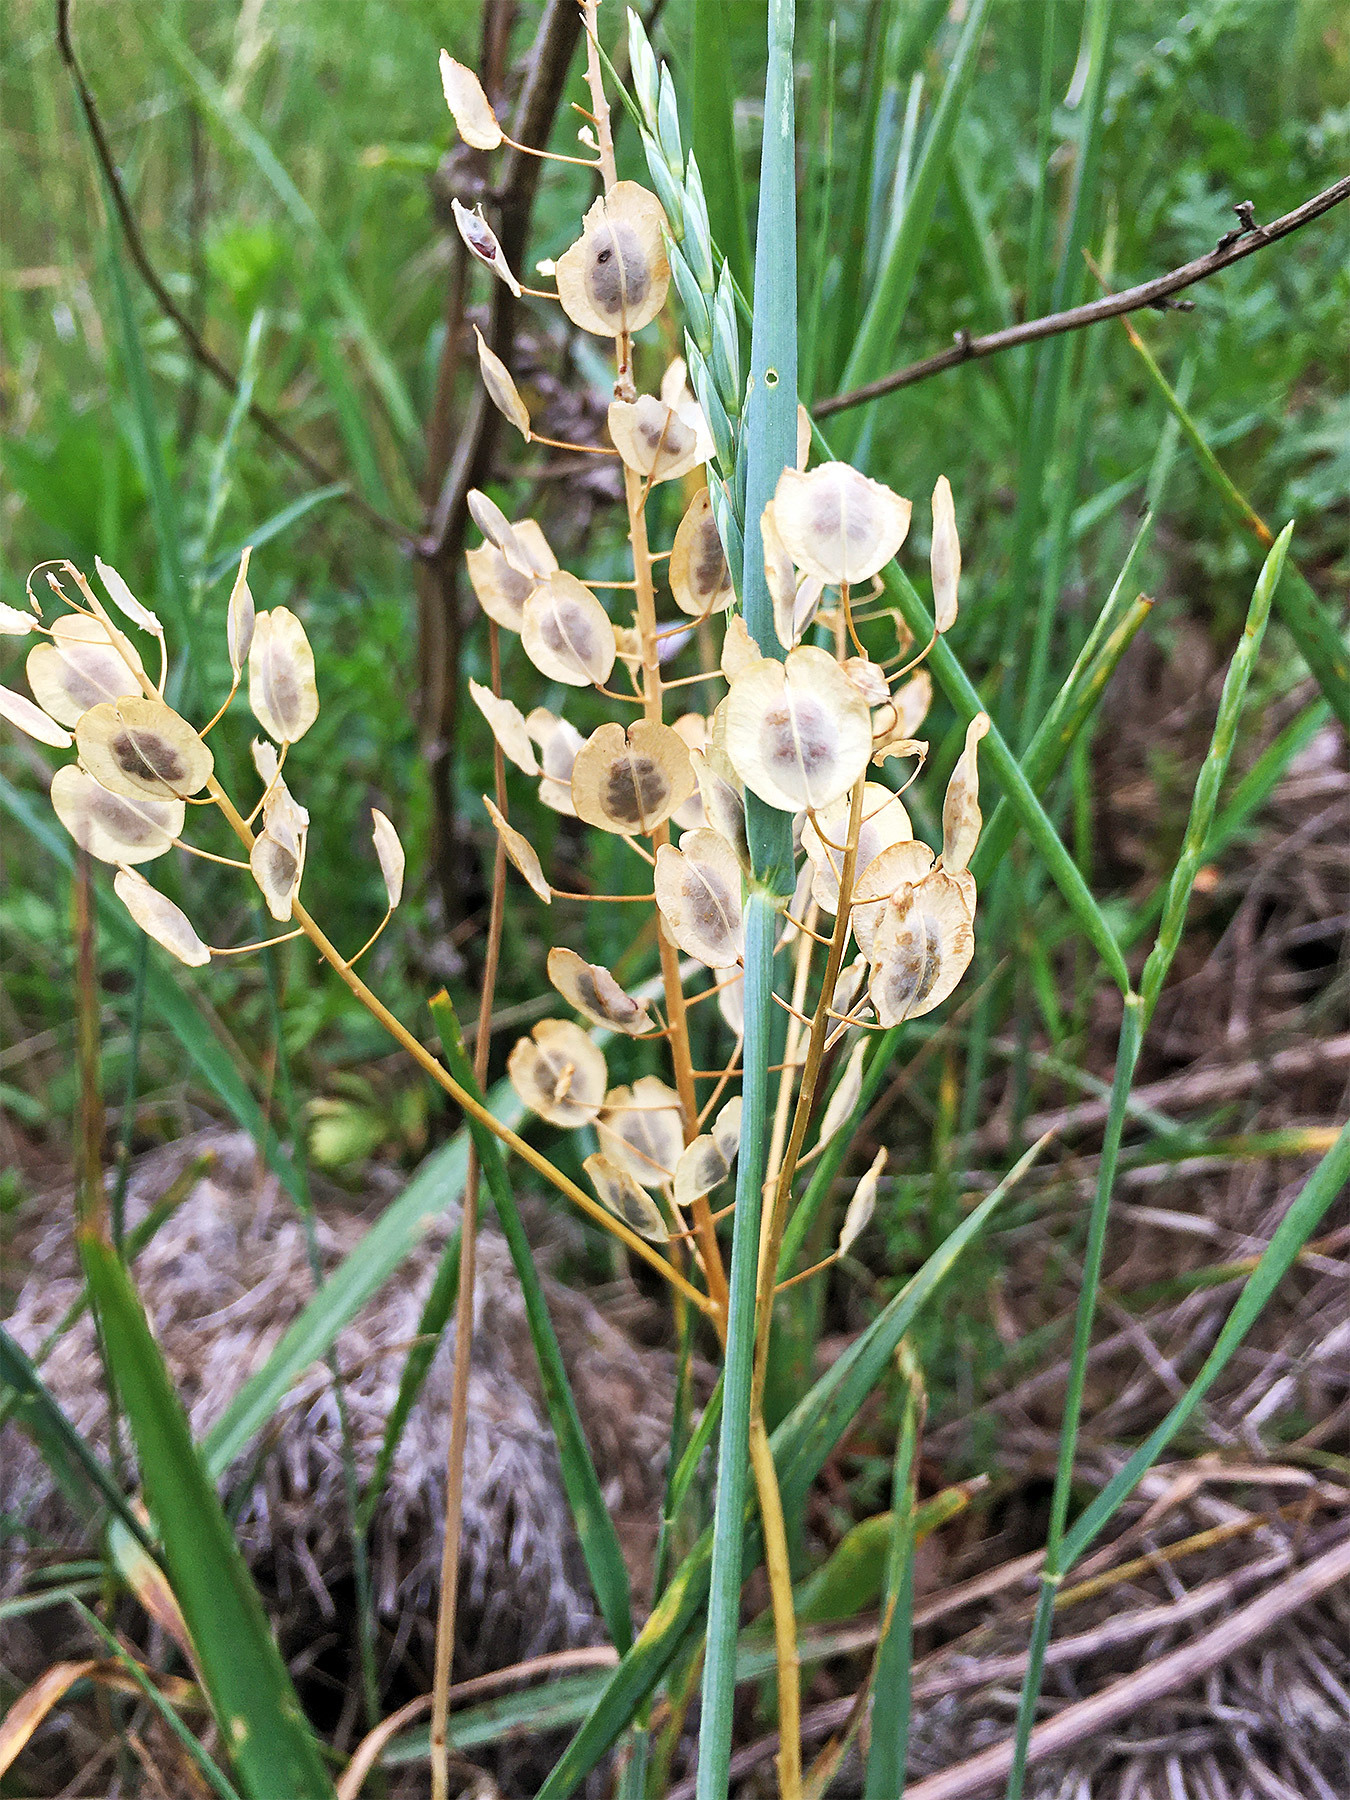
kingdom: Plantae
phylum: Tracheophyta
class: Magnoliopsida
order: Brassicales
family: Brassicaceae
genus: Thlaspi
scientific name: Thlaspi arvense
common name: Field pennycress
